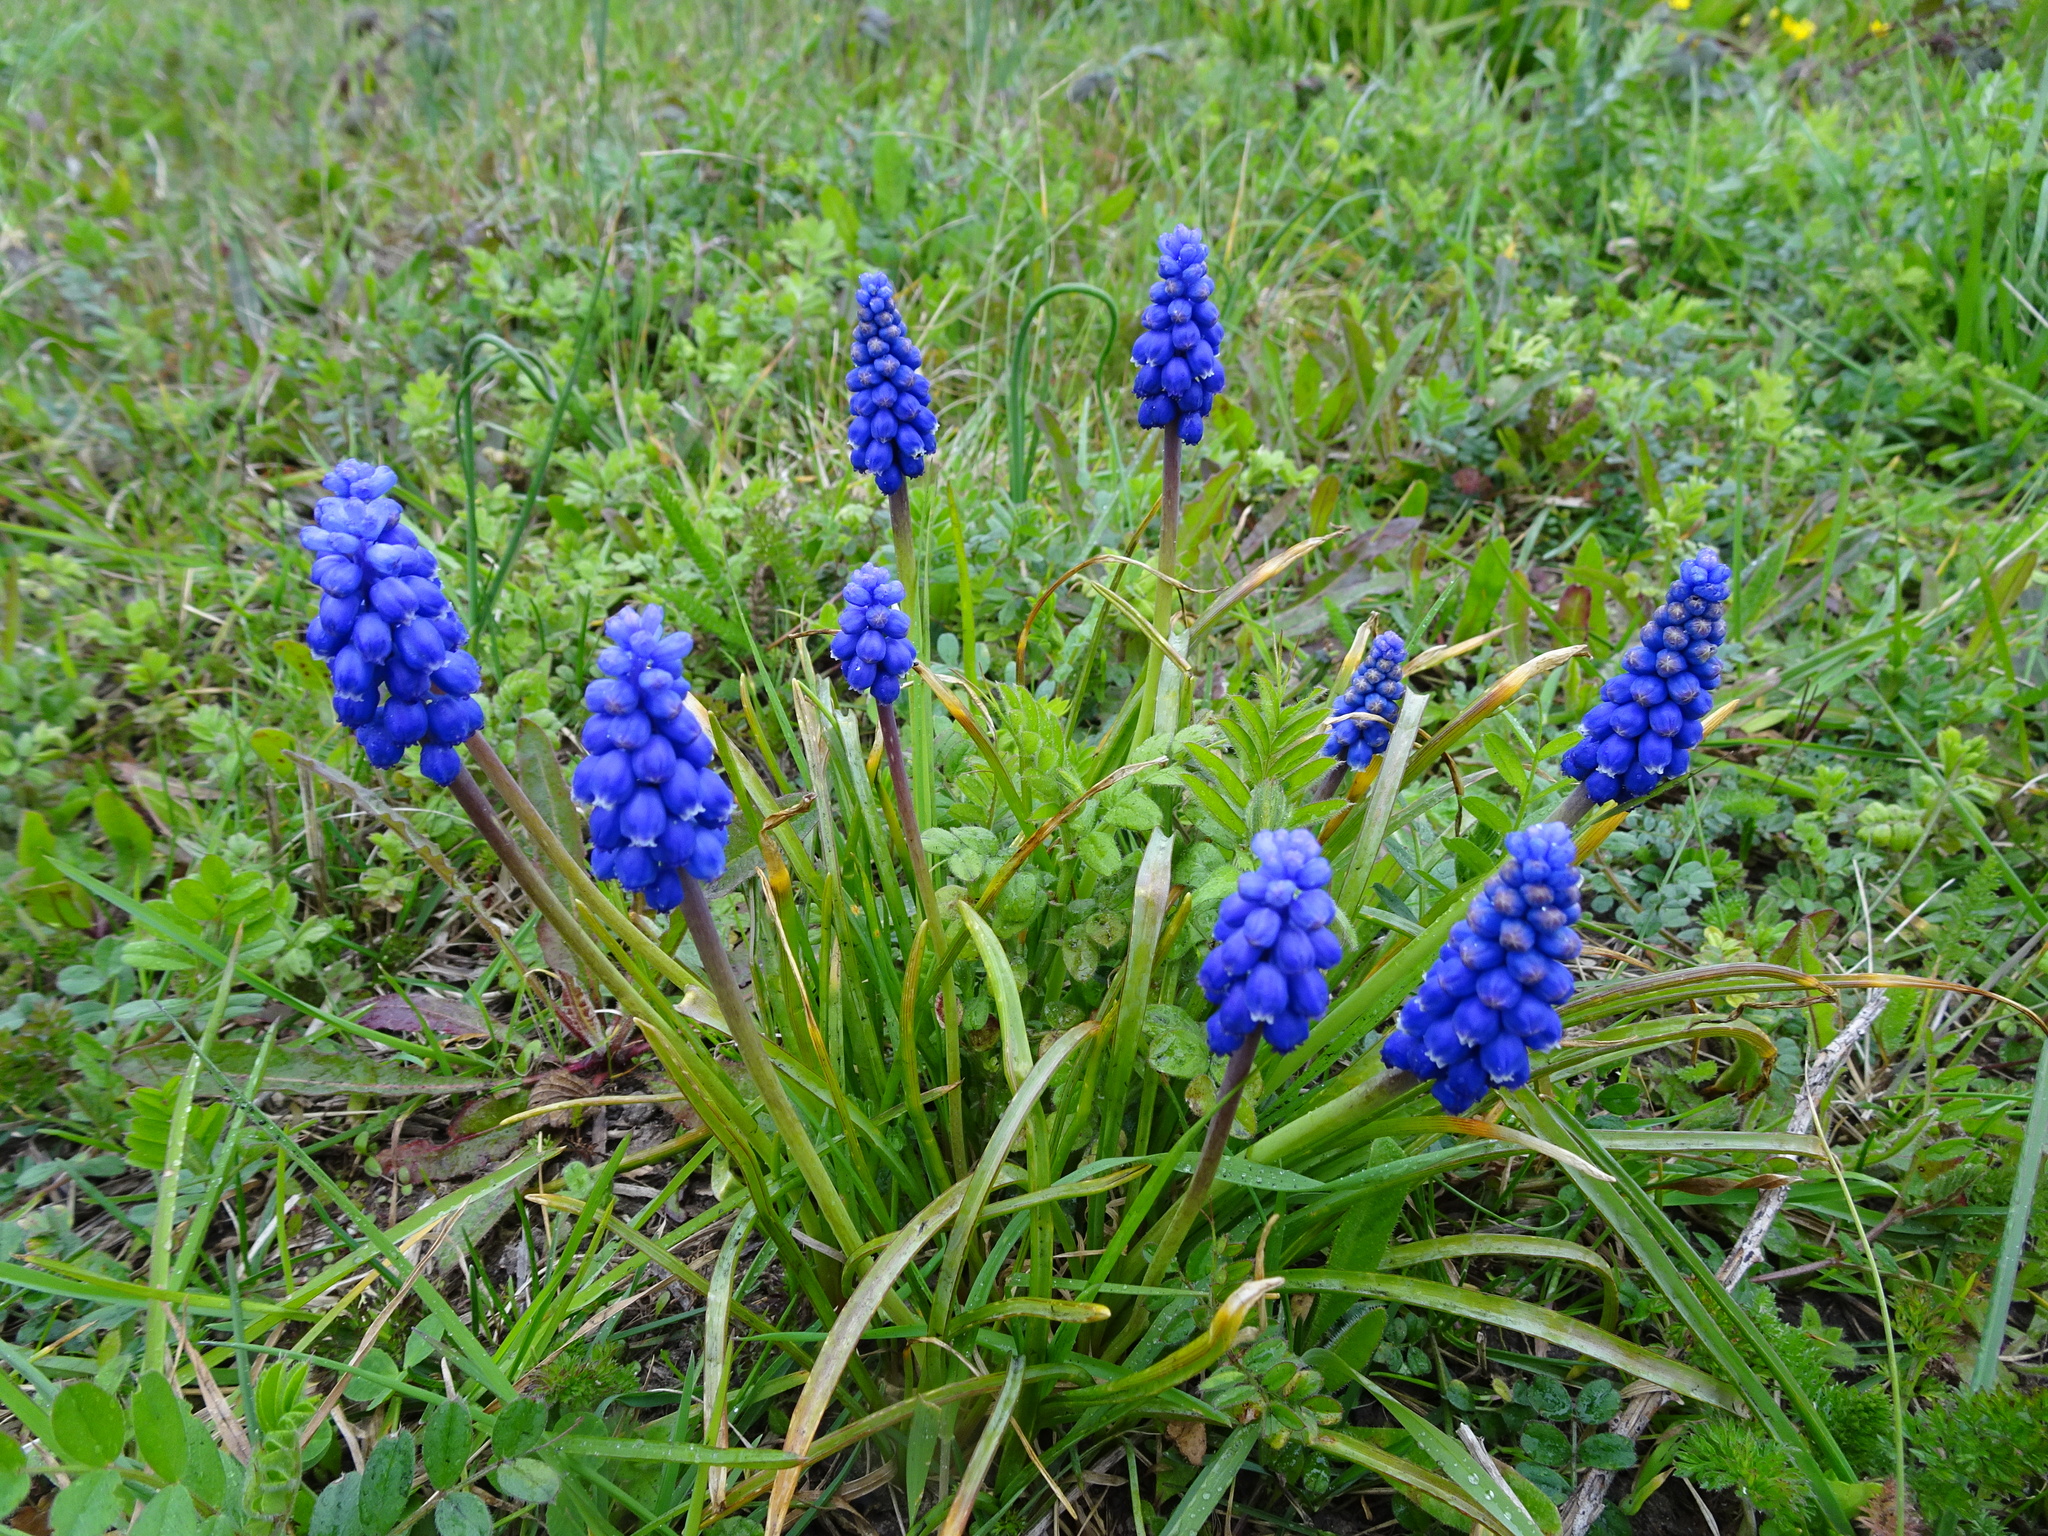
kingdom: Plantae
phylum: Tracheophyta
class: Liliopsida
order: Asparagales
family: Asparagaceae
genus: Muscari
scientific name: Muscari armeniacum
